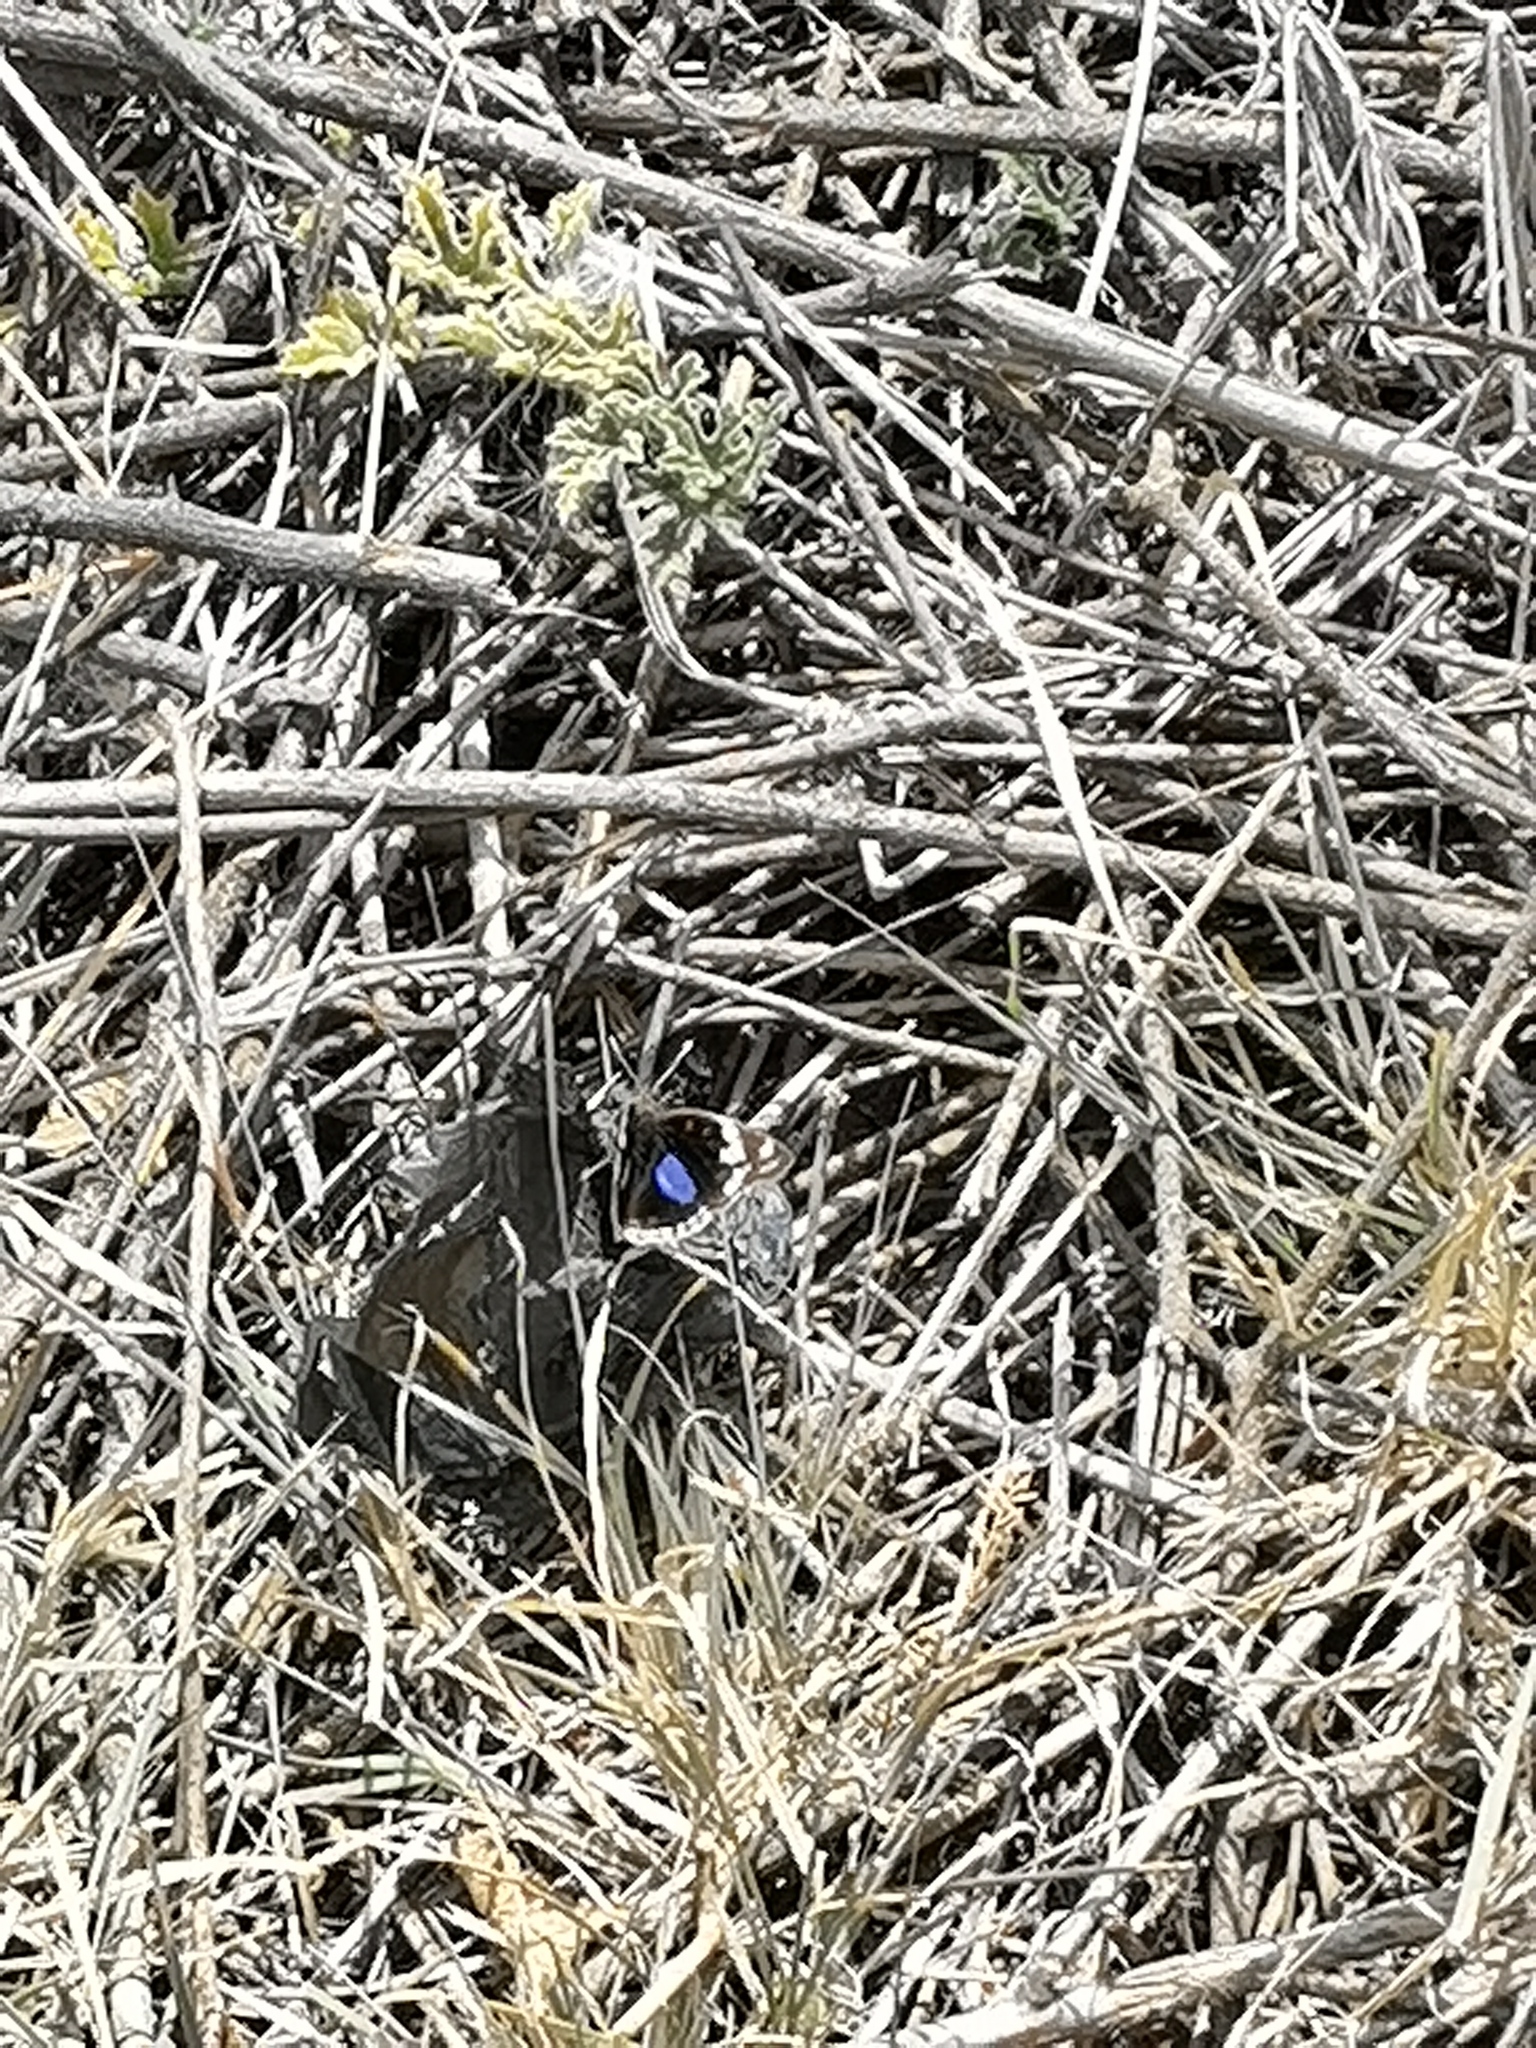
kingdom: Animalia
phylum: Arthropoda
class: Insecta
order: Lepidoptera
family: Nymphalidae
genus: Junonia
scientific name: Junonia oenone
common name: Dark blue pansy
